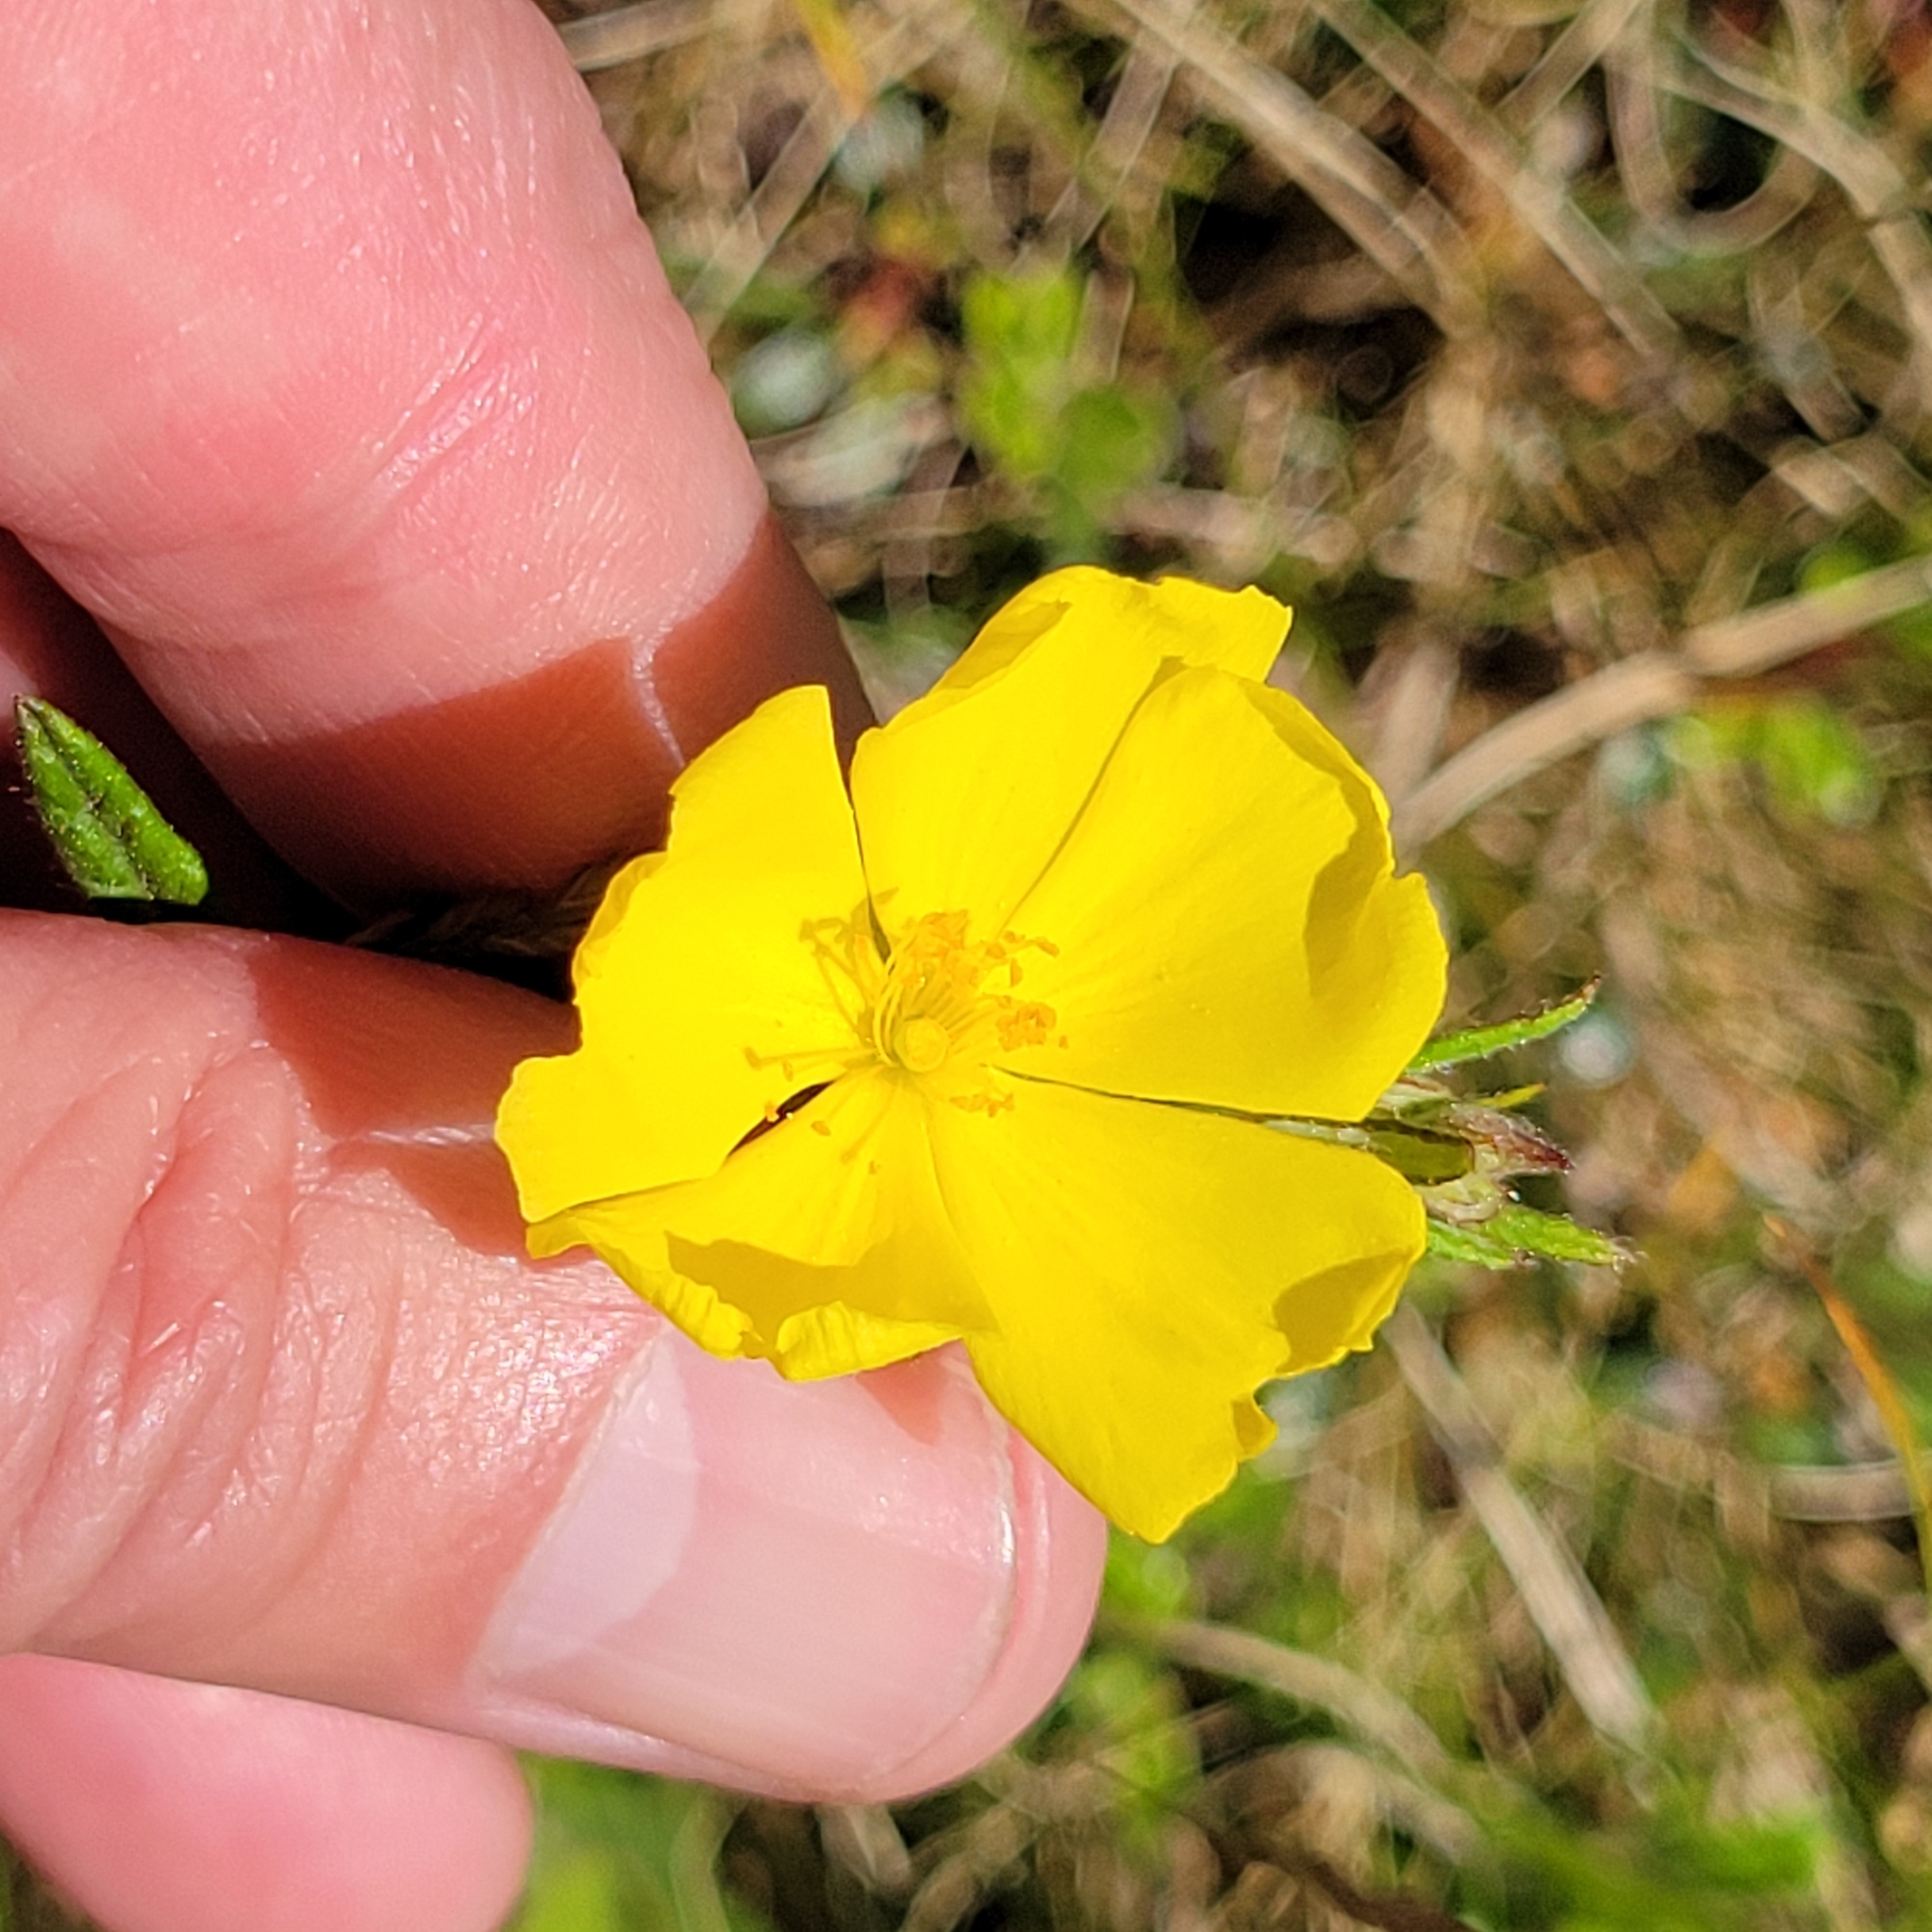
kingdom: Plantae
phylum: Tracheophyta
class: Magnoliopsida
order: Malvales
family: Cistaceae
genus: Crocanthemum
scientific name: Crocanthemum canadense
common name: Canada frostweed
